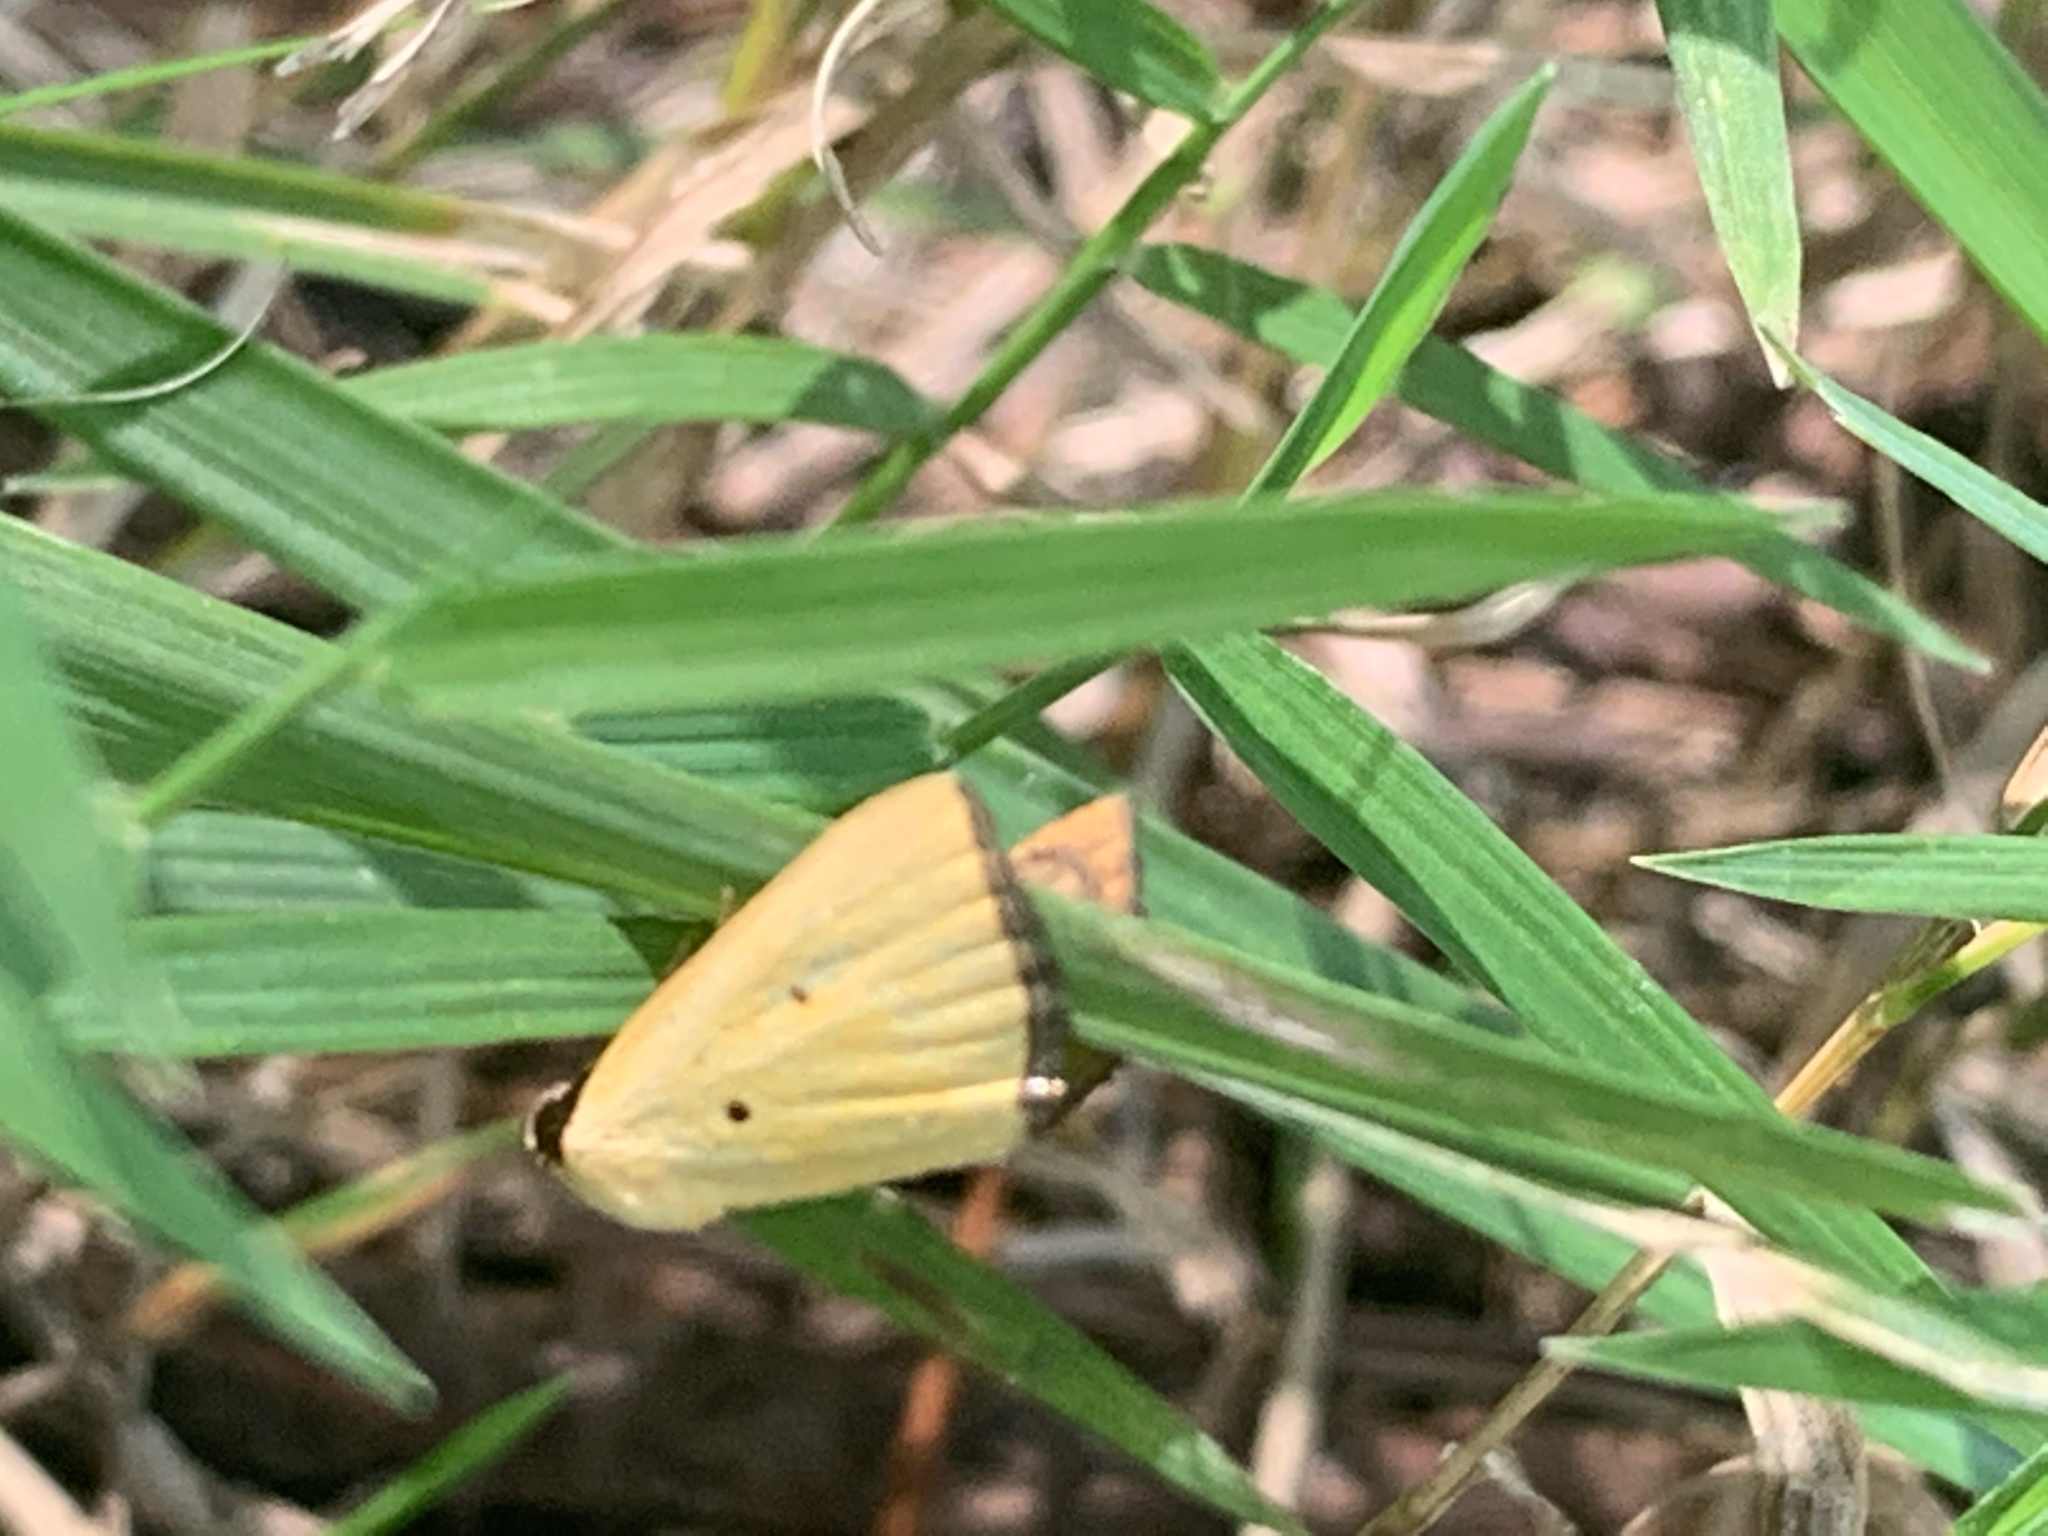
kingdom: Animalia
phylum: Arthropoda
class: Insecta
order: Lepidoptera
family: Noctuidae
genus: Marimatha
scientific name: Marimatha nigrofimbria
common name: Black-bordered lemon moth
